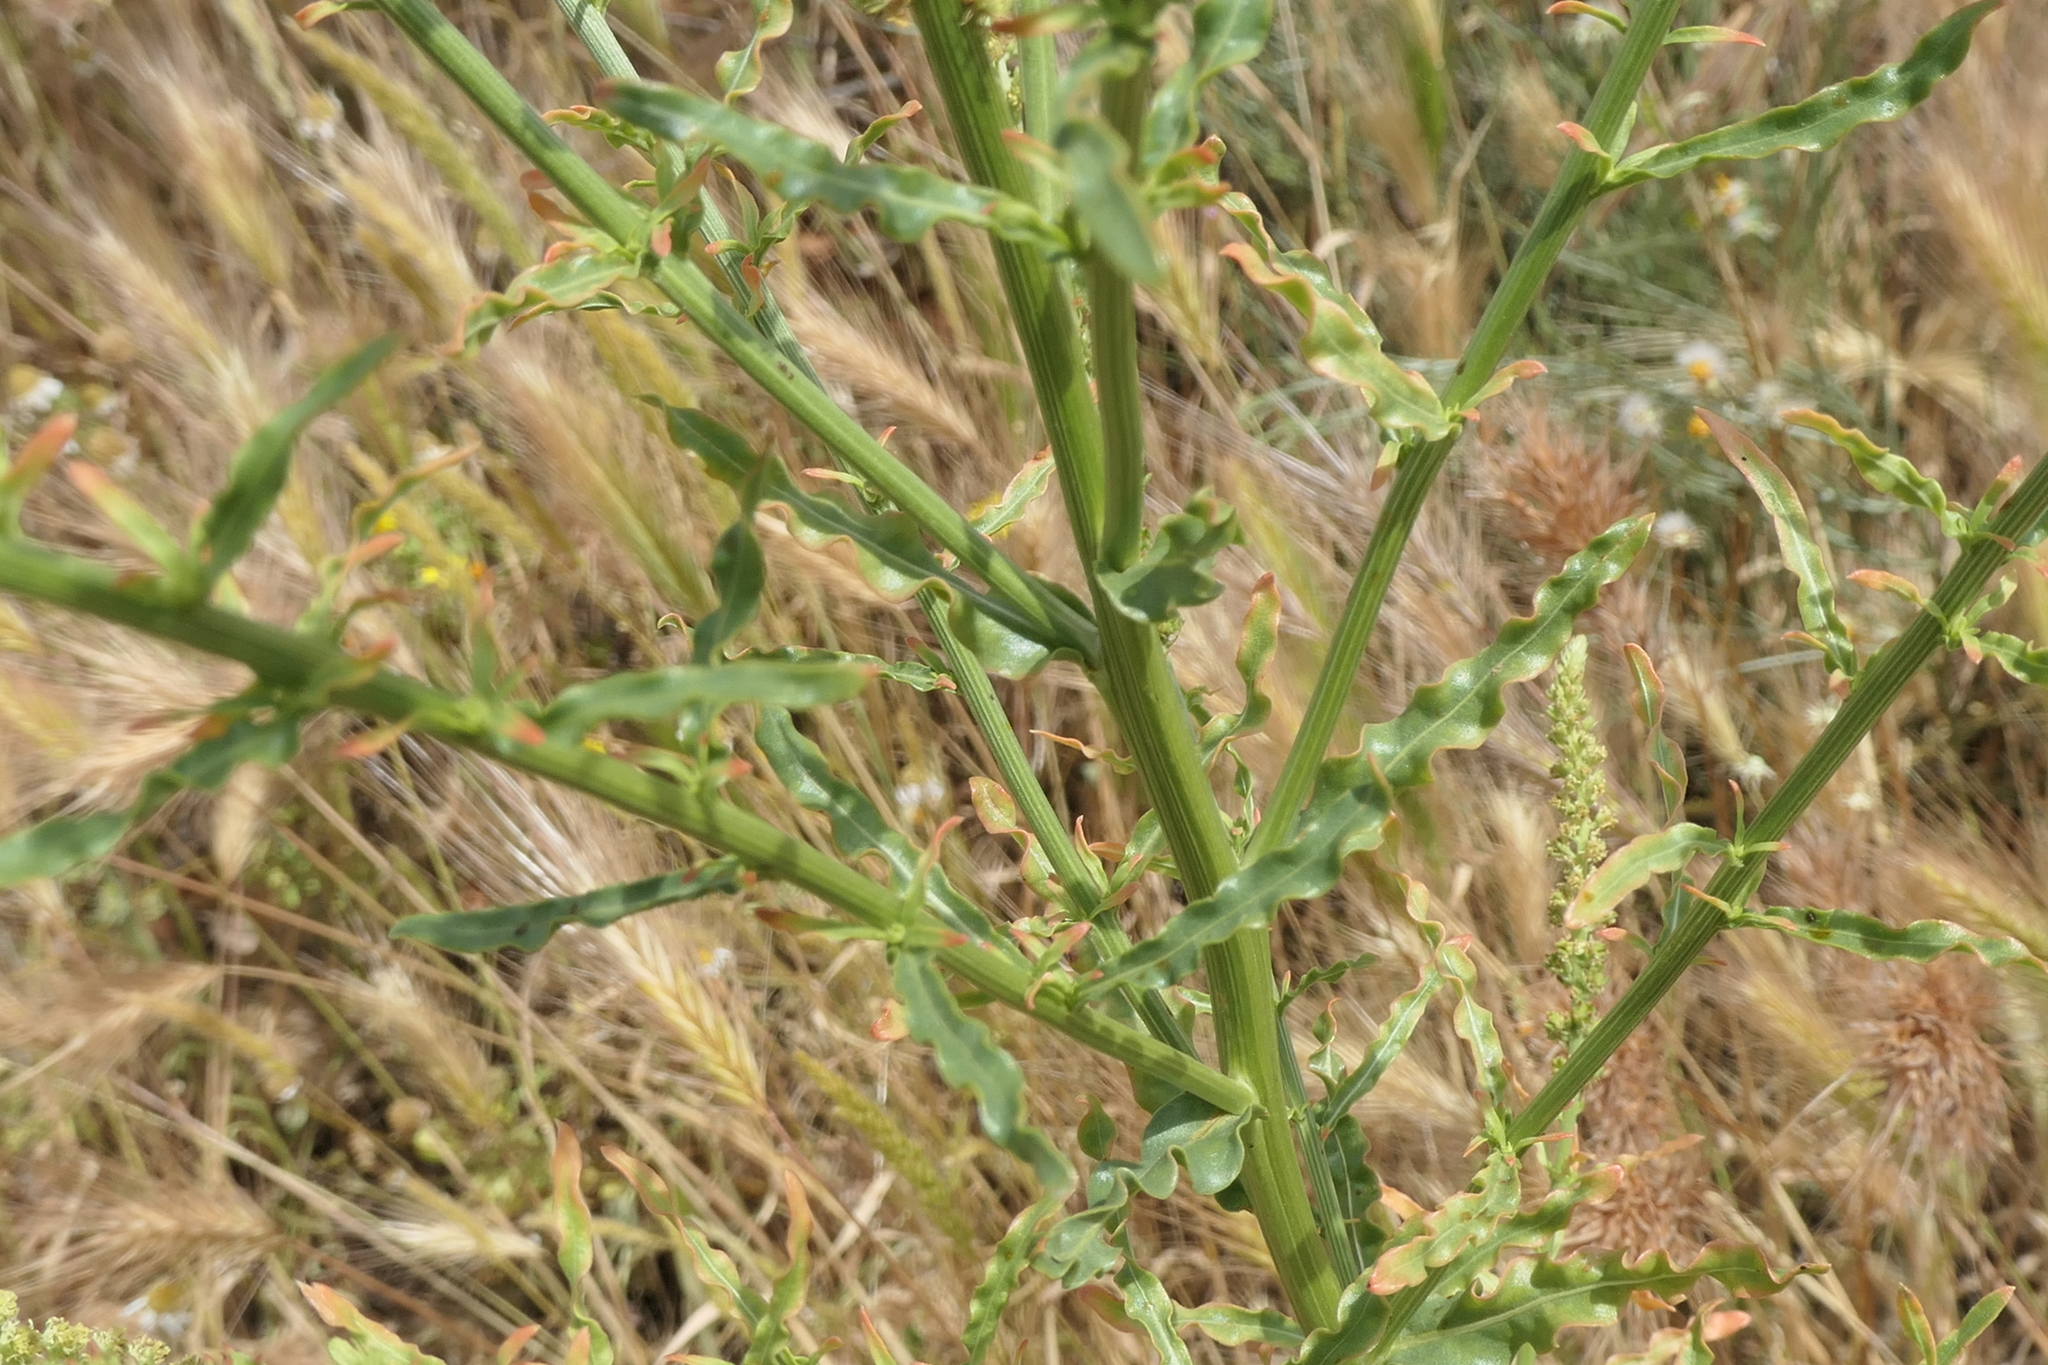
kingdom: Plantae
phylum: Tracheophyta
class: Magnoliopsida
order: Brassicales
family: Resedaceae
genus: Reseda
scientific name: Reseda luteola
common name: Weld
